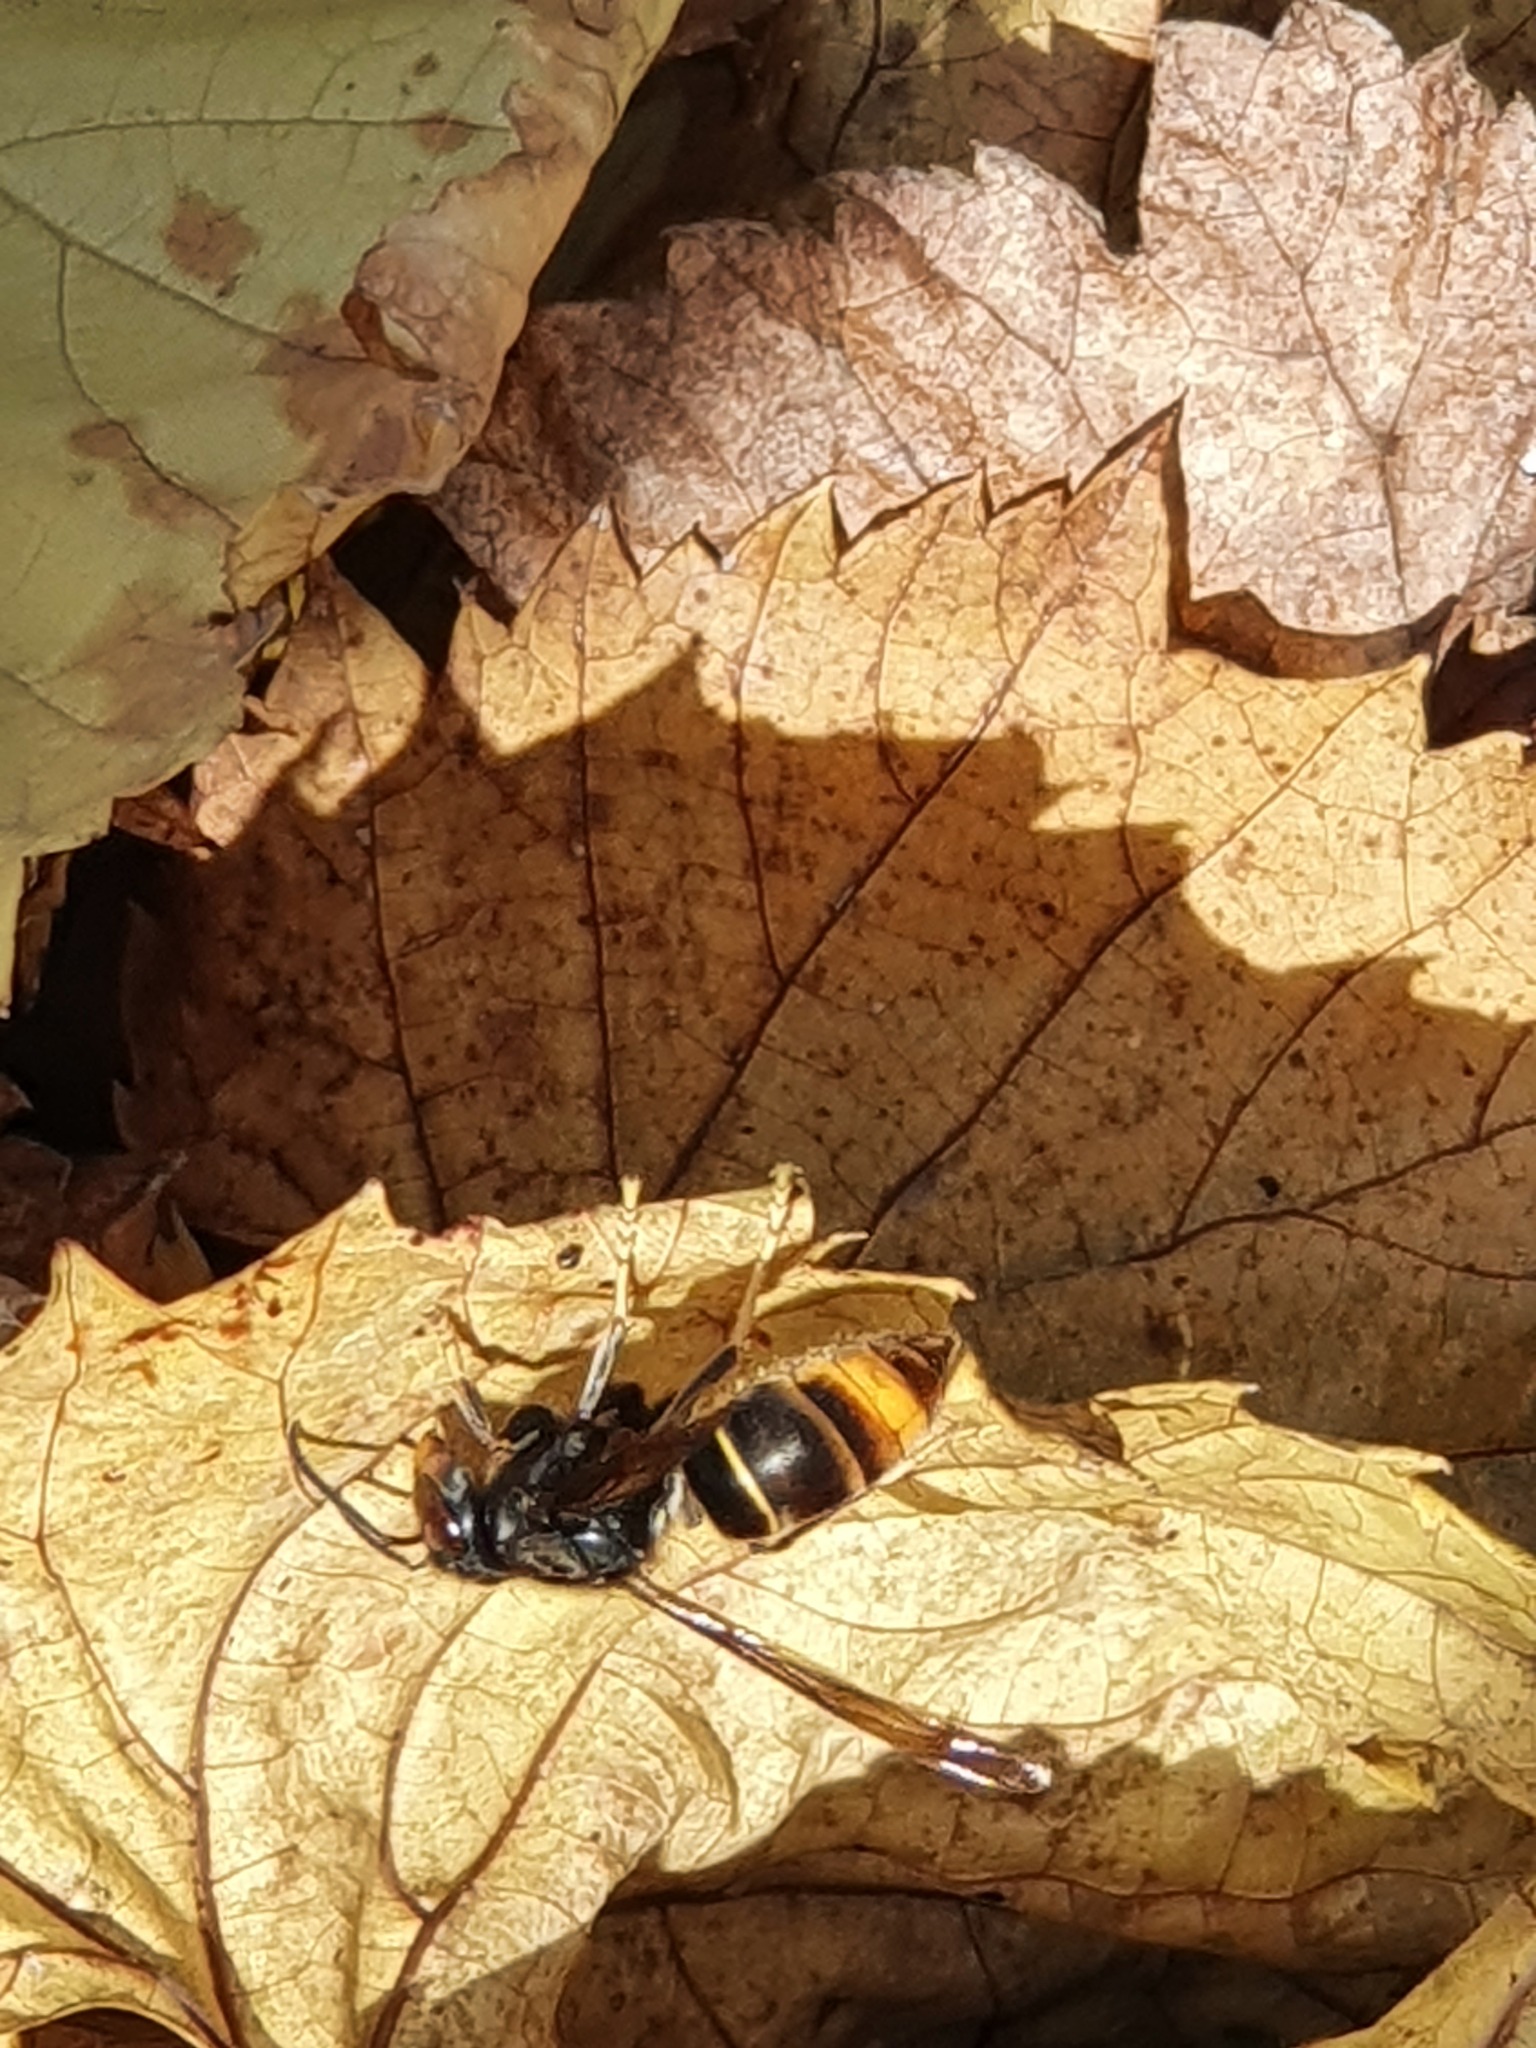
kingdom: Animalia
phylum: Arthropoda
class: Insecta
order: Hymenoptera
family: Vespidae
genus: Vespa
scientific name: Vespa velutina
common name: Asian hornet
